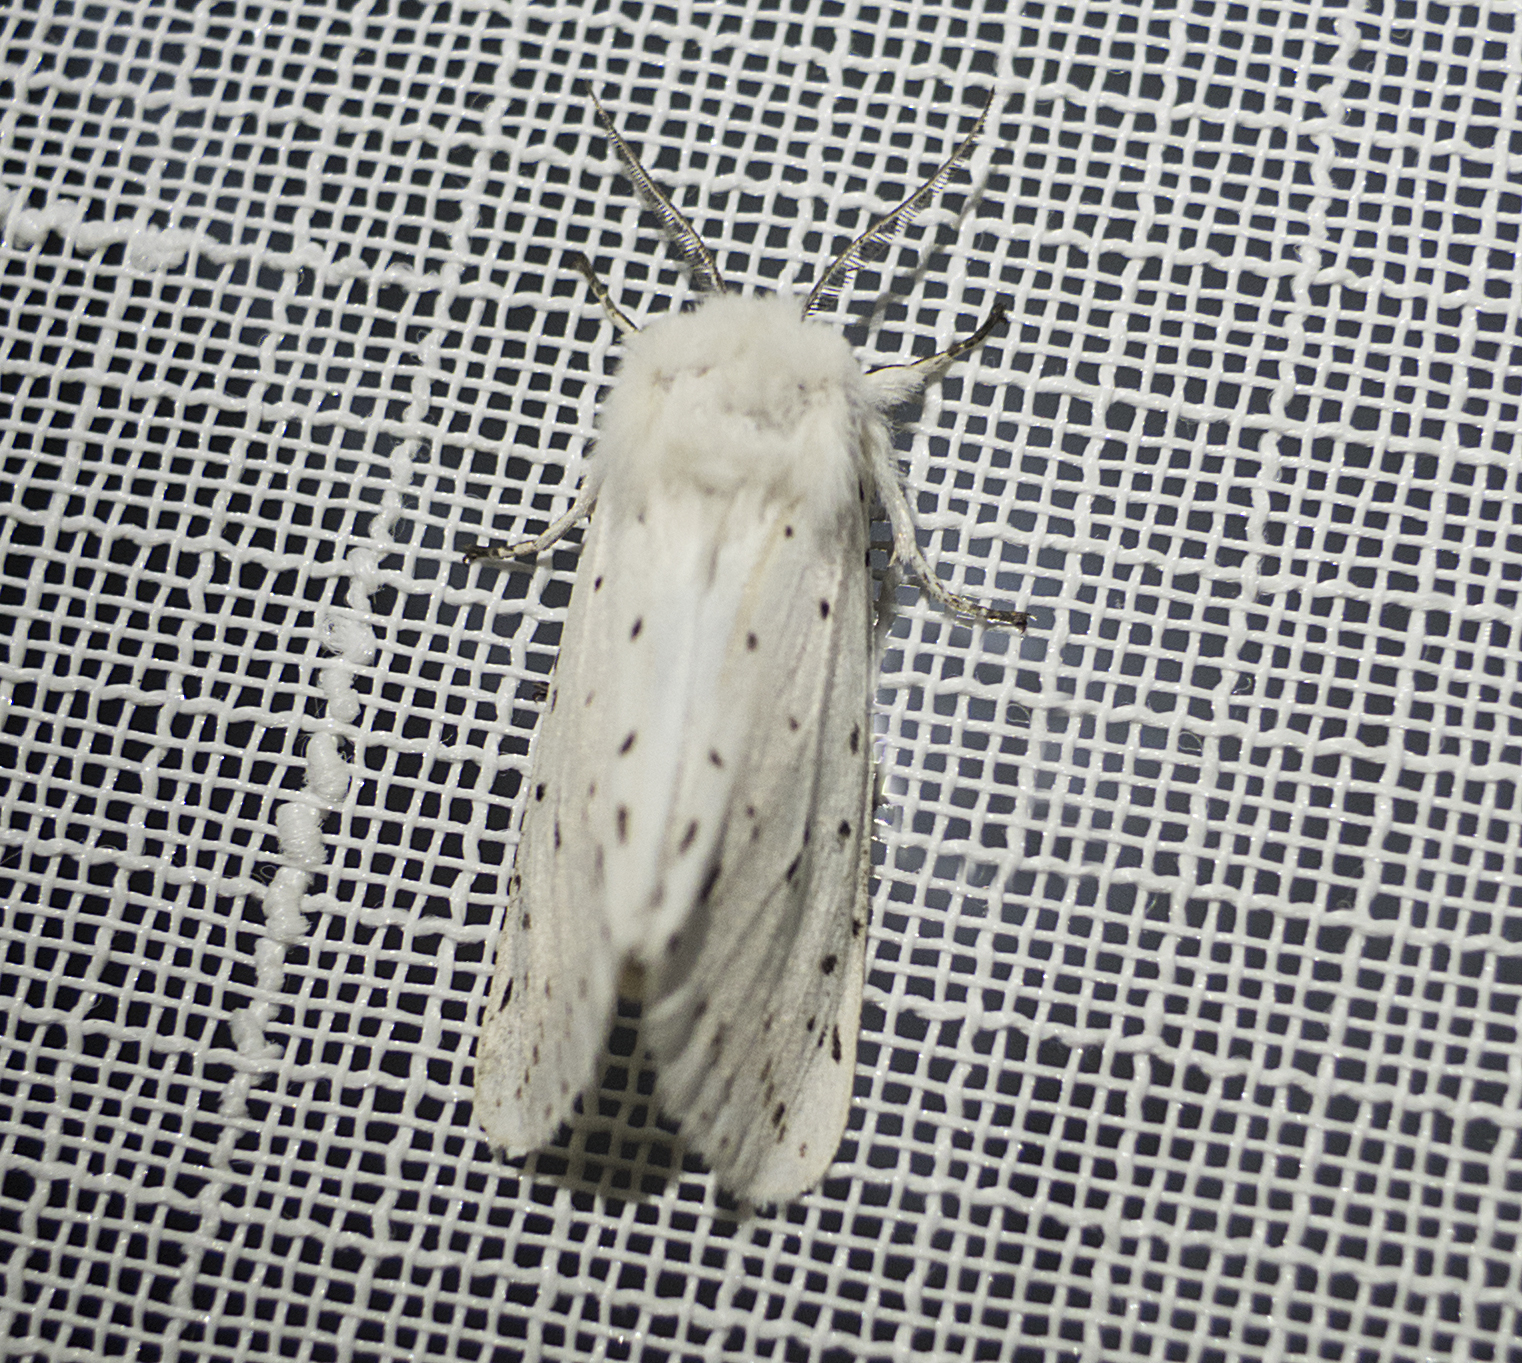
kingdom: Animalia
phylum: Arthropoda
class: Insecta
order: Lepidoptera
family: Erebidae
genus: Spilosoma
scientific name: Spilosoma lubricipeda
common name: White ermine
